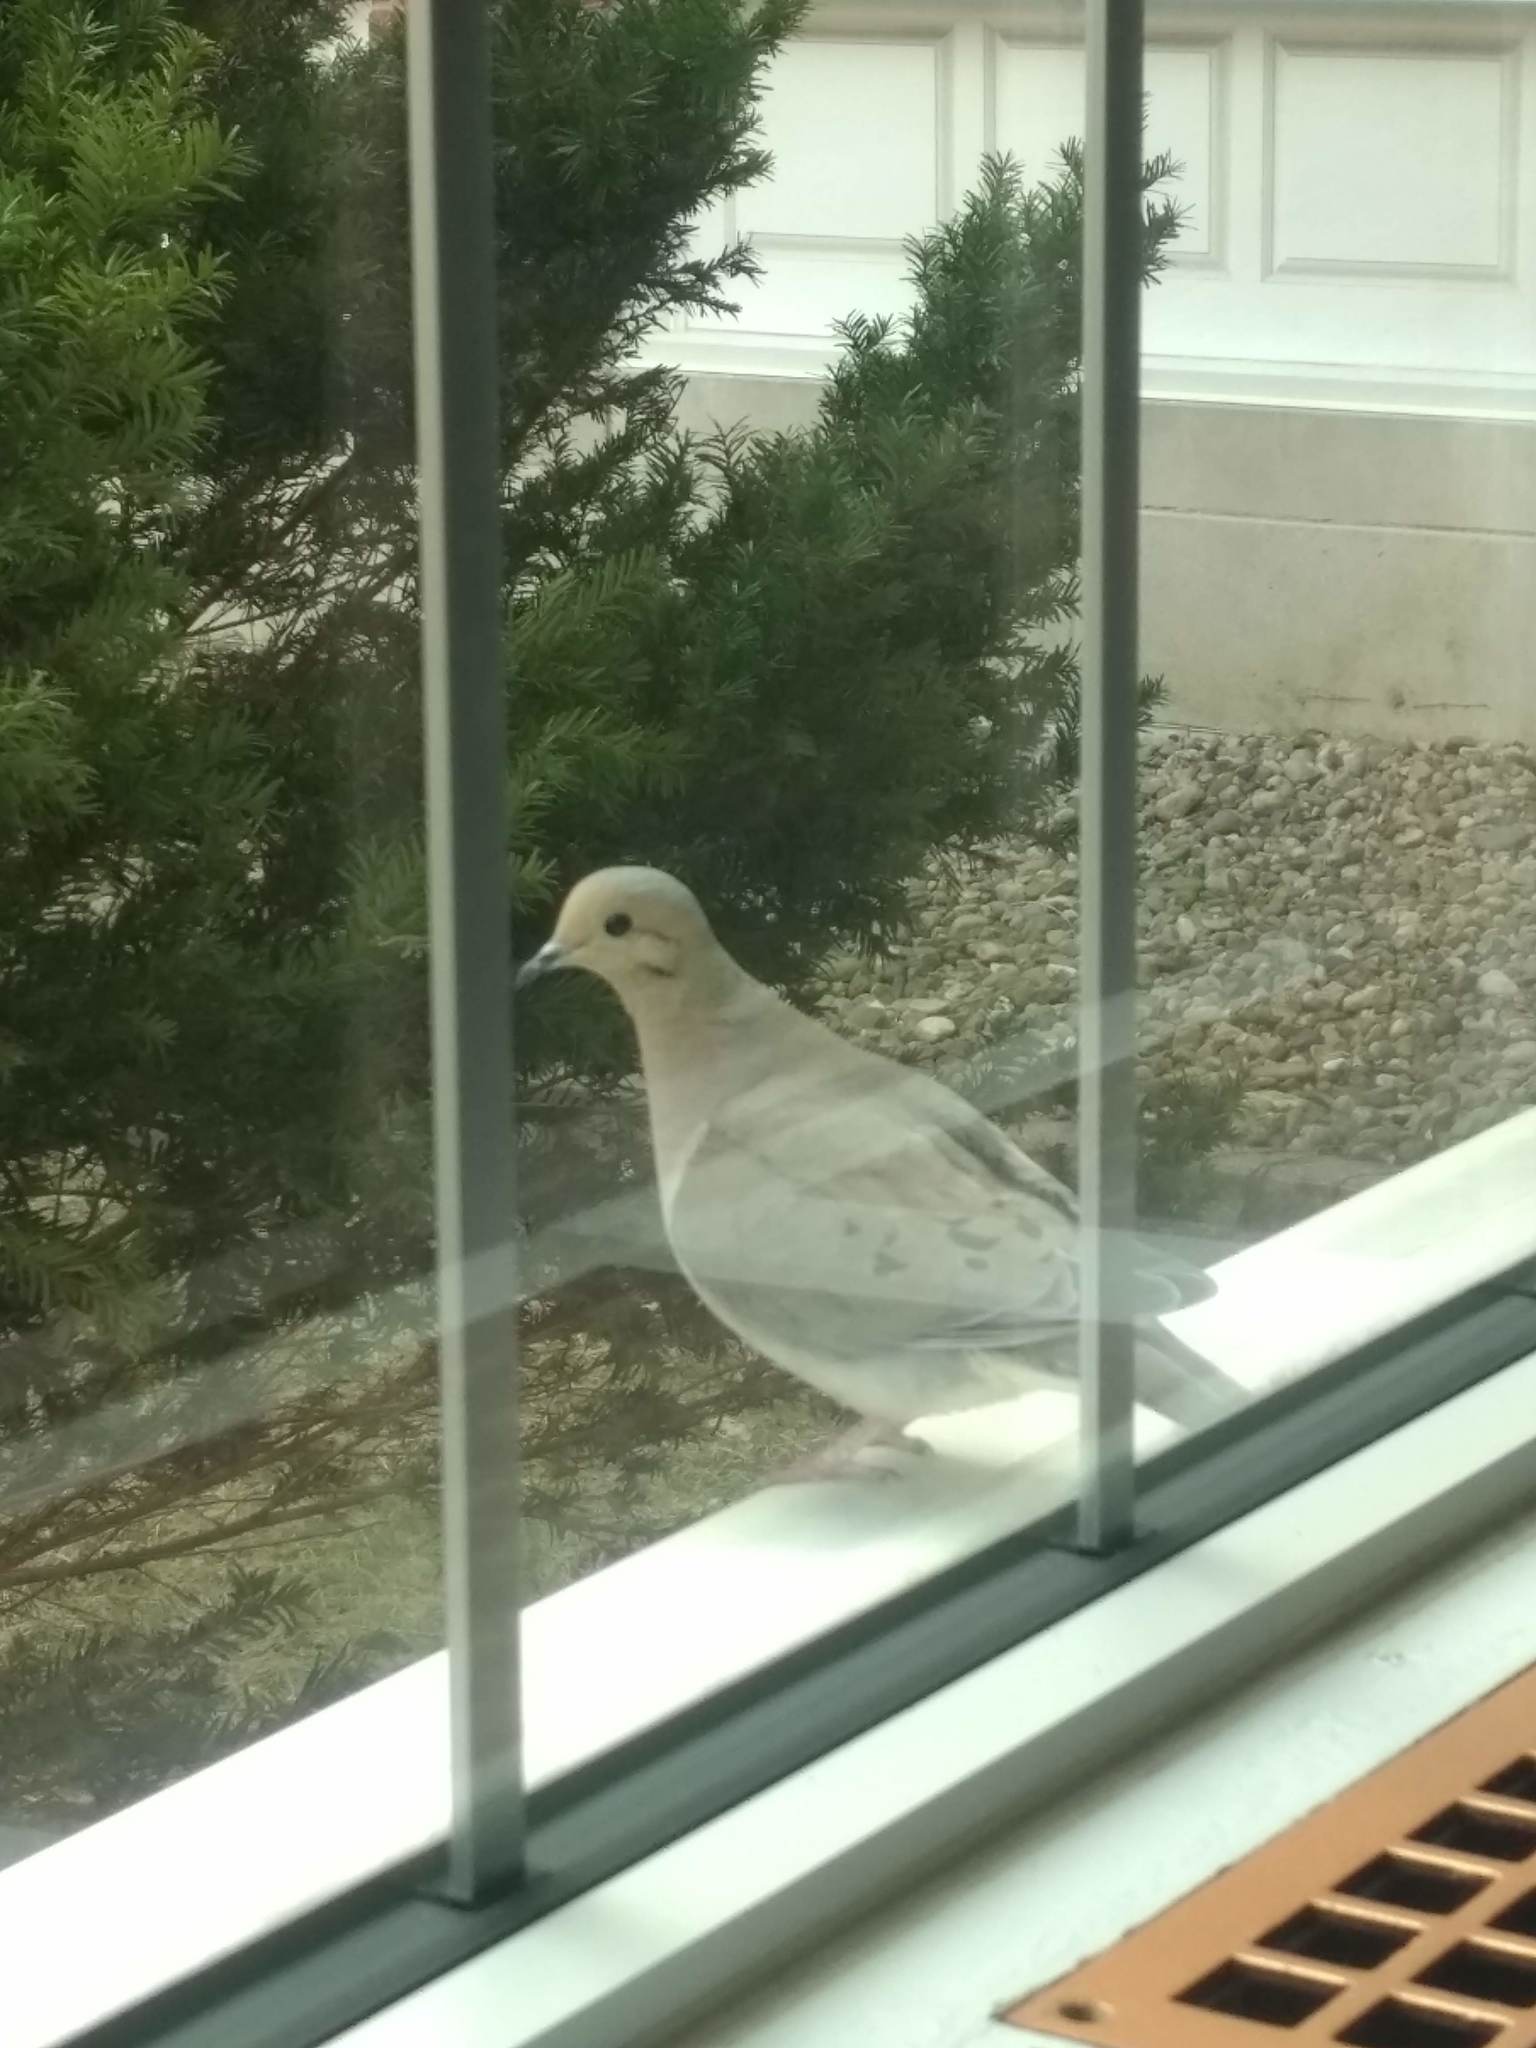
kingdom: Animalia
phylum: Chordata
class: Aves
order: Columbiformes
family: Columbidae
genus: Zenaida
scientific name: Zenaida macroura
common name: Mourning dove
